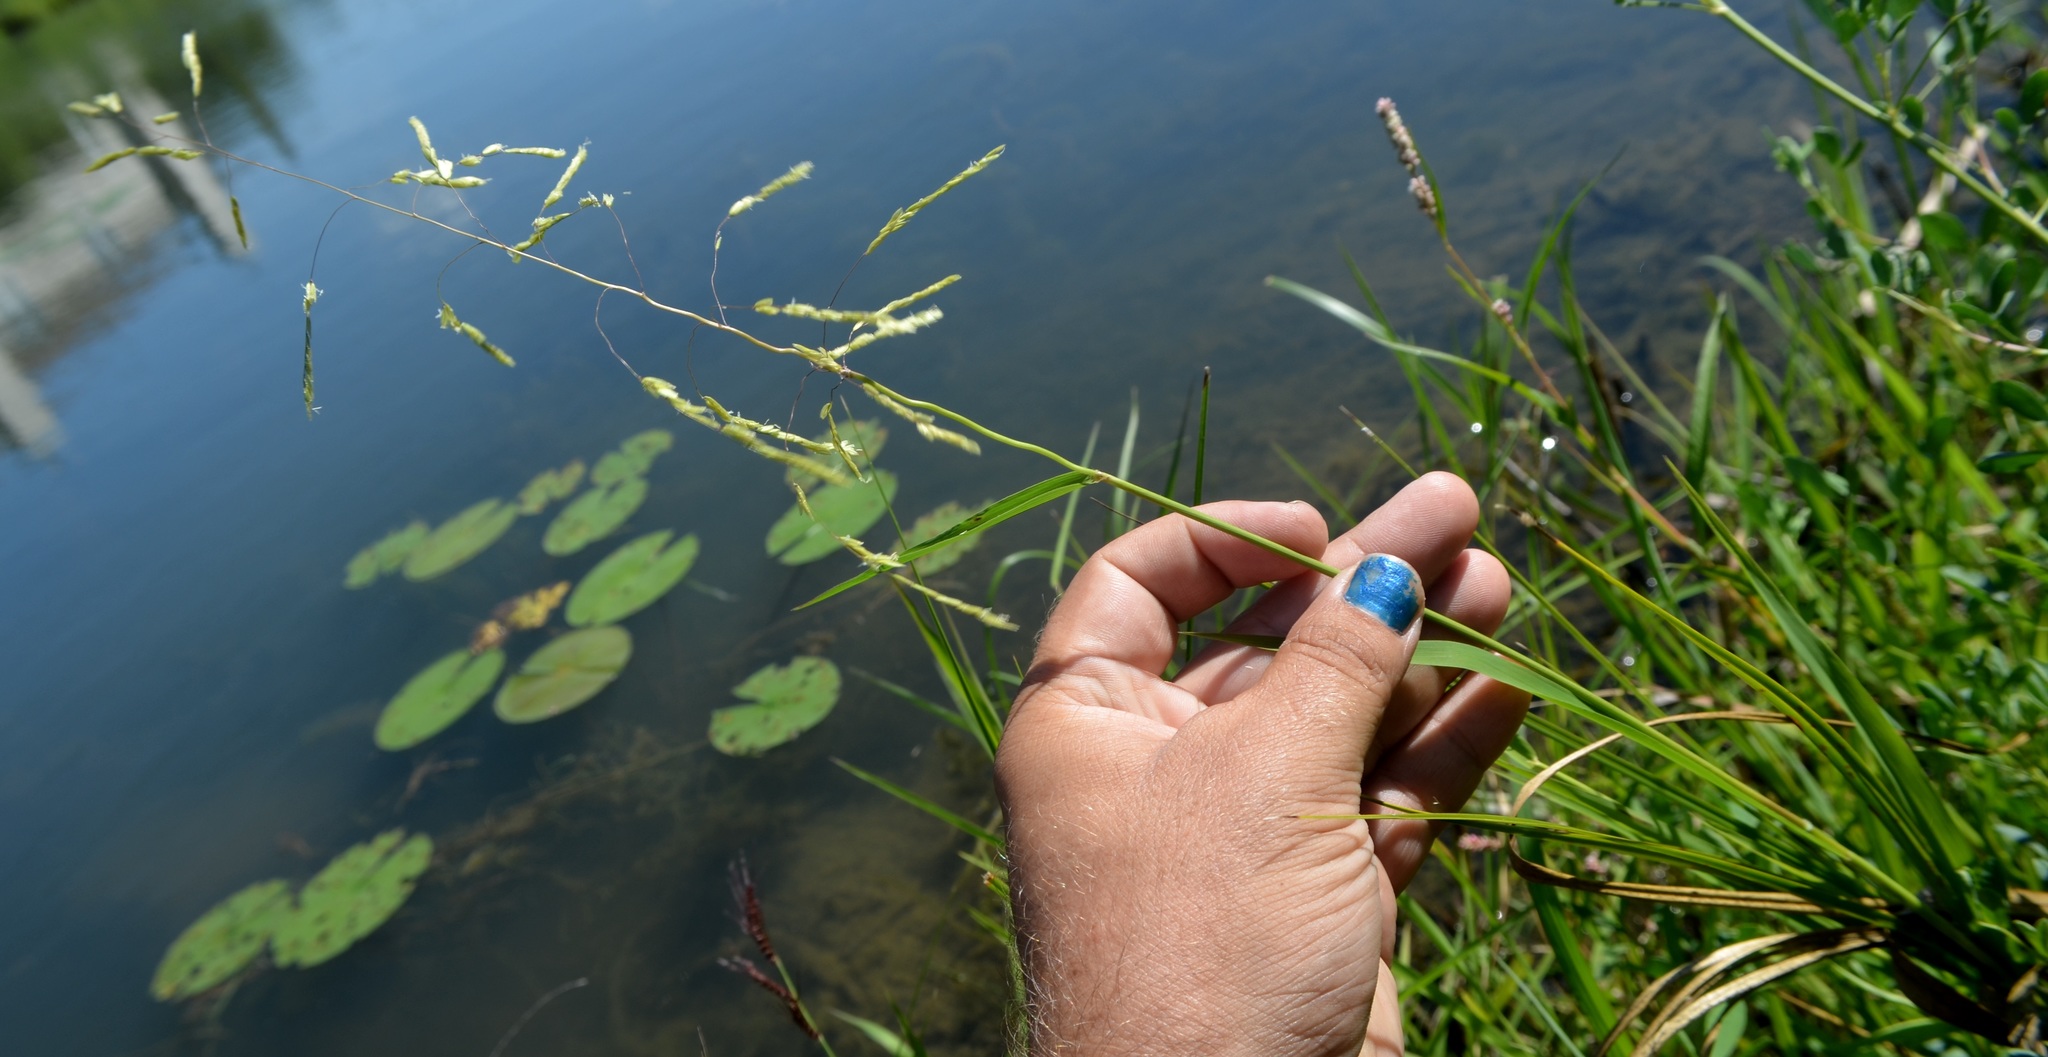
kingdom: Plantae
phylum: Tracheophyta
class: Liliopsida
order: Poales
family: Poaceae
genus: Leersia
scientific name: Leersia oryzoides
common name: Cut-grass
